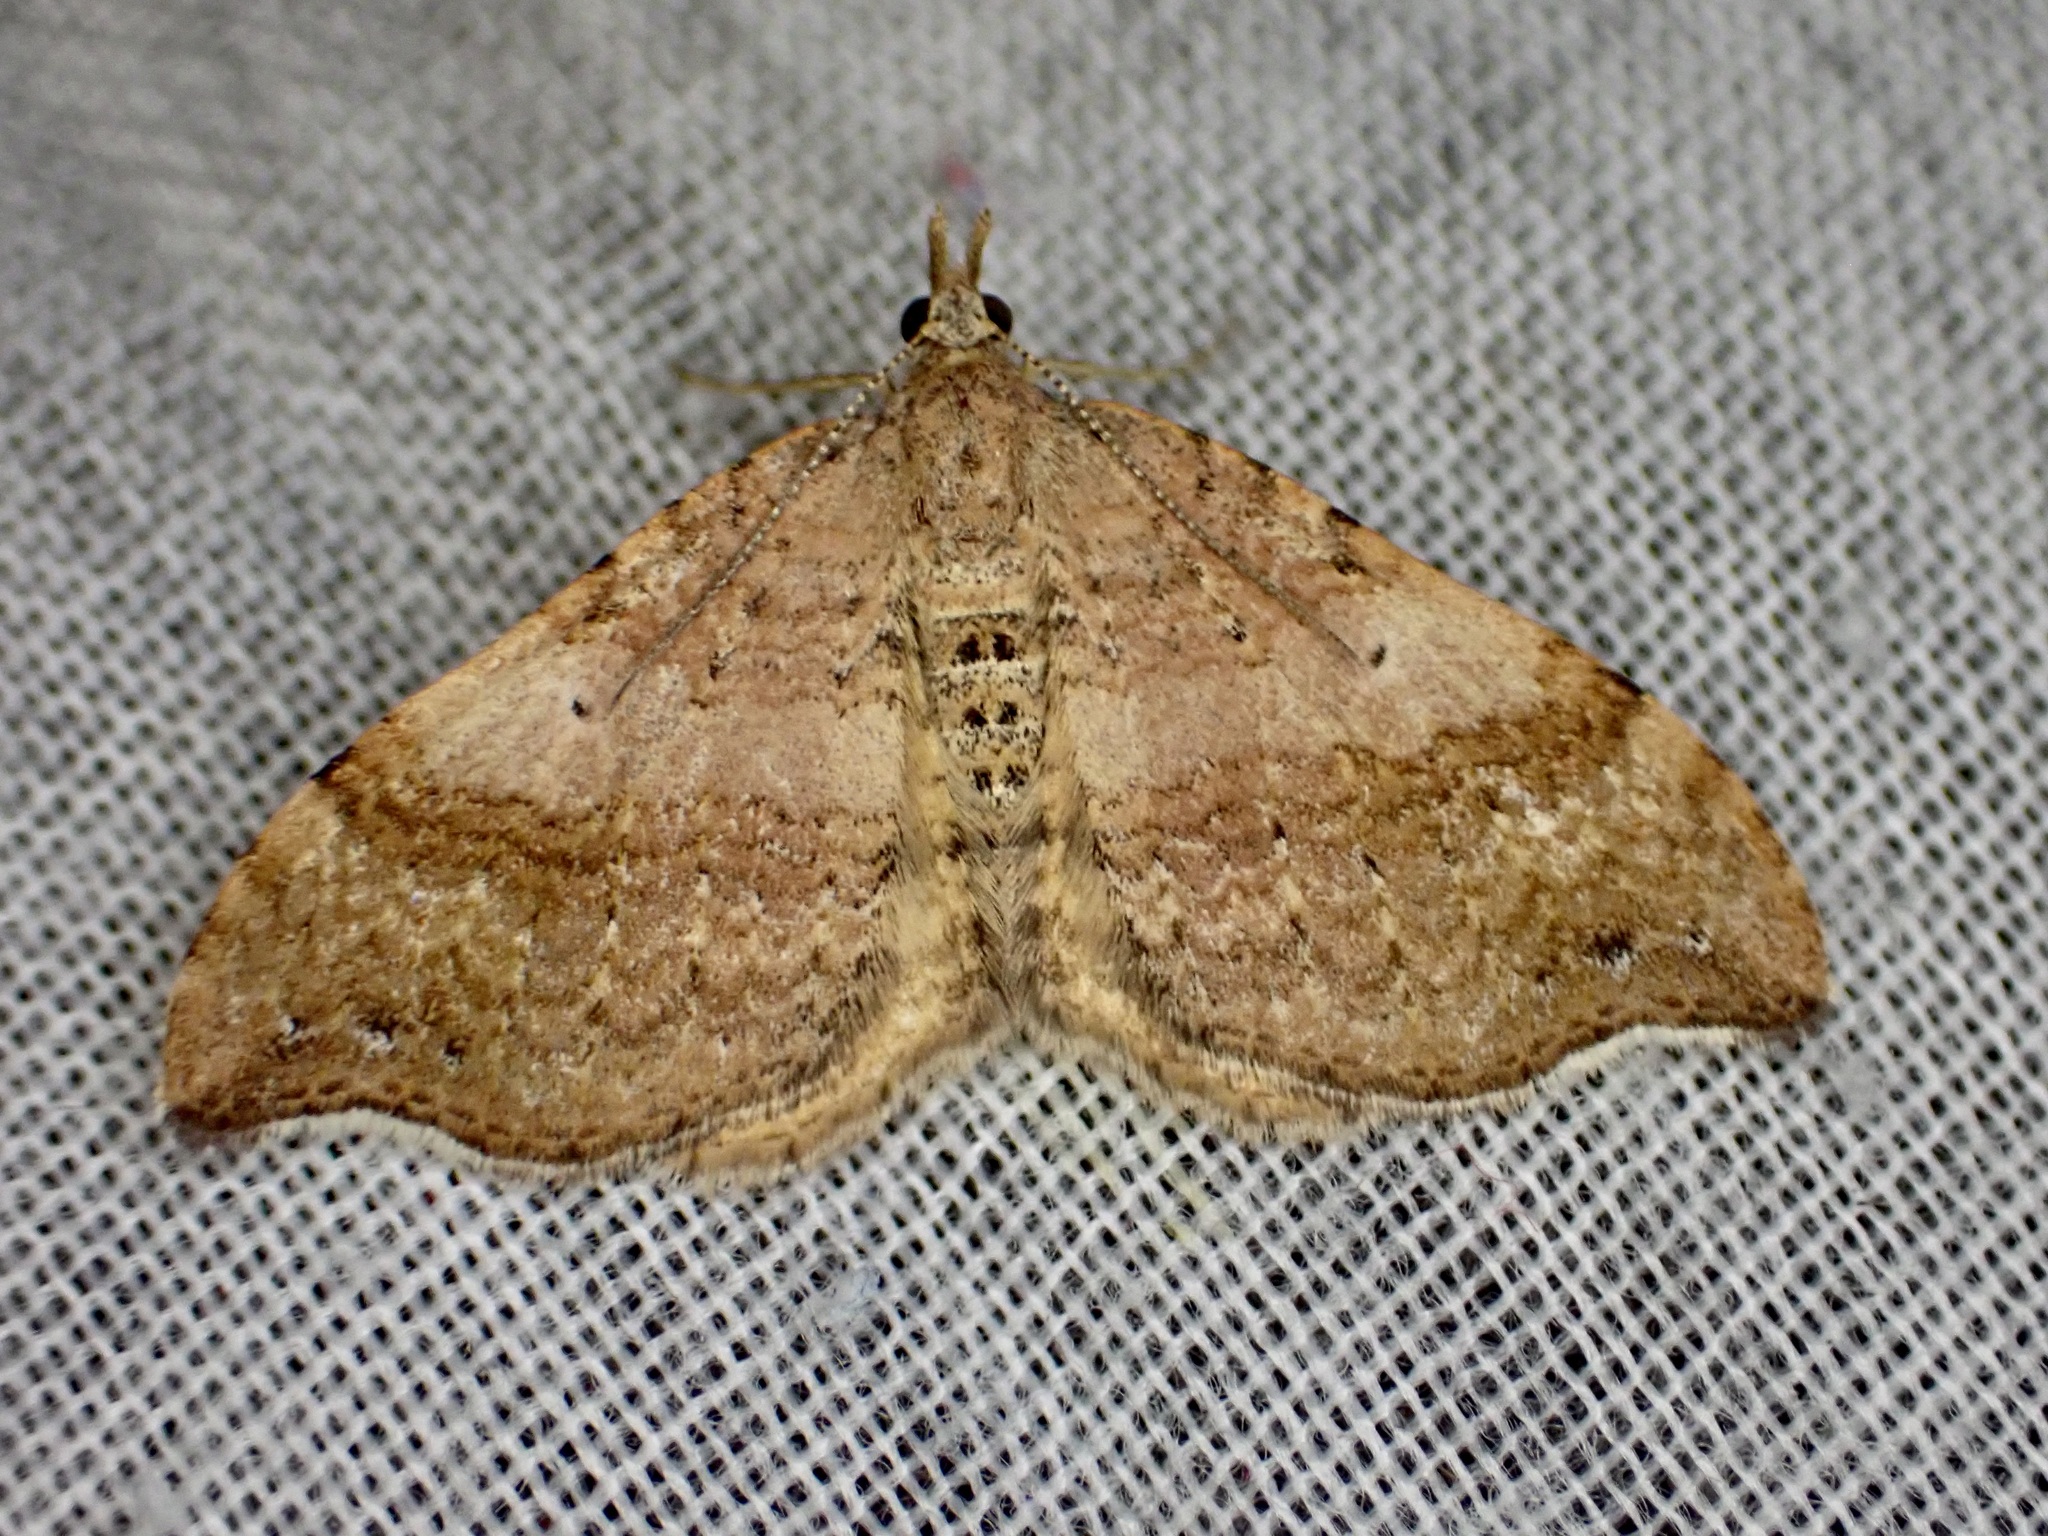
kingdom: Animalia
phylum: Arthropoda
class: Insecta
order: Lepidoptera
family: Geometridae
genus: Homodotis
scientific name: Homodotis megaspilata
